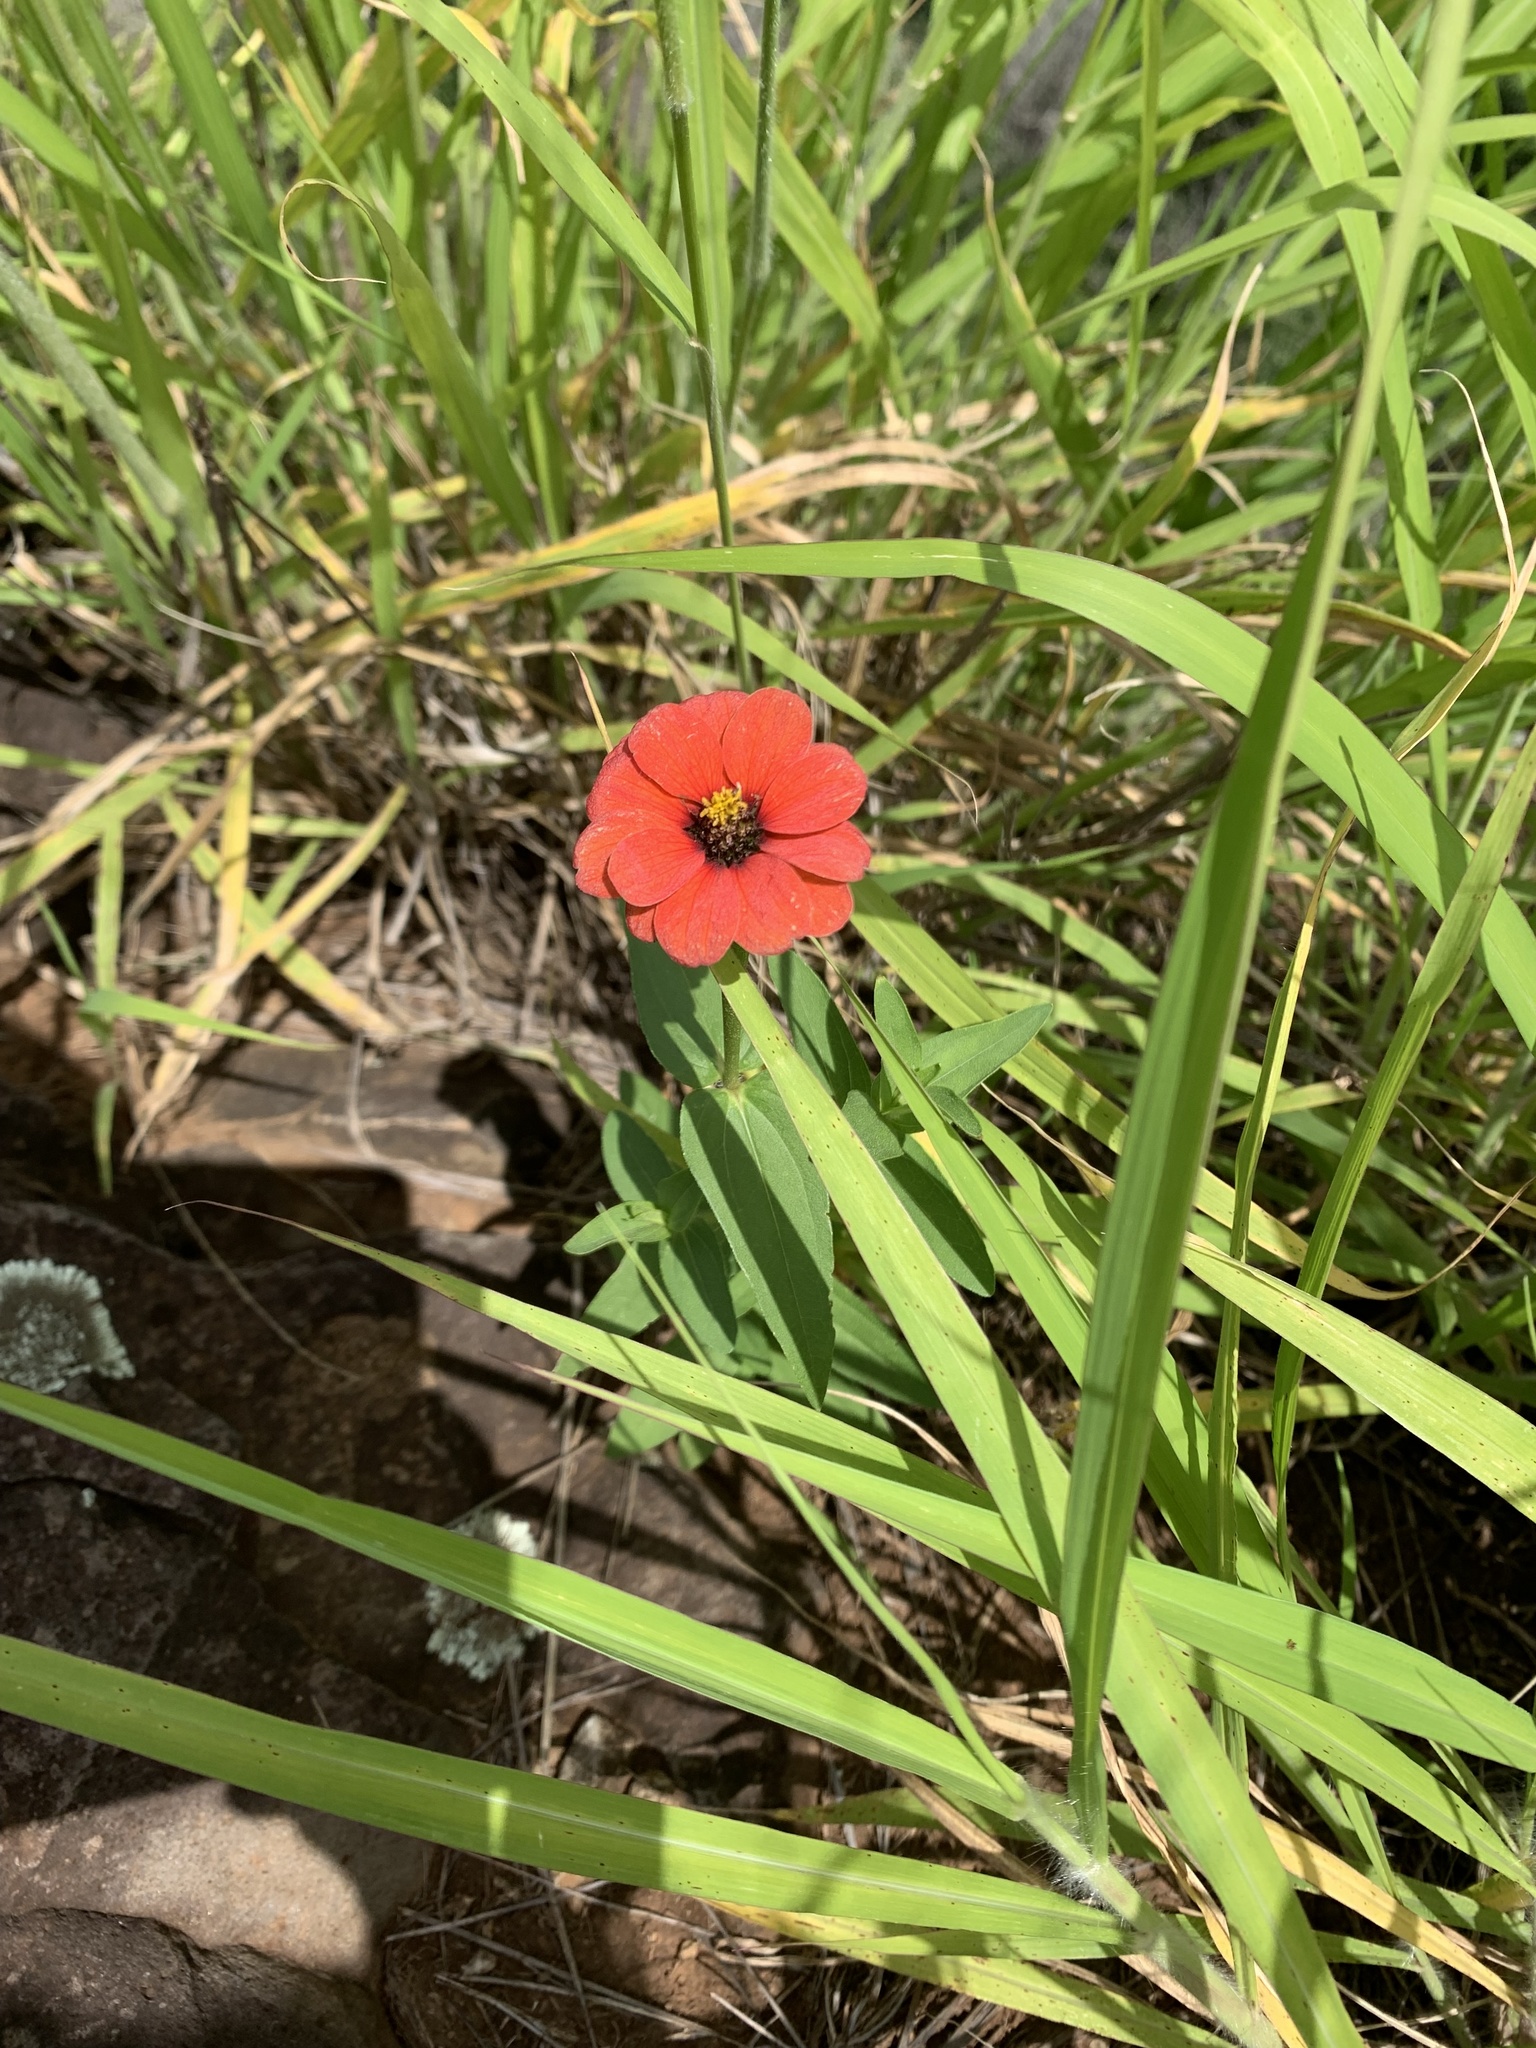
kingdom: Plantae
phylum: Tracheophyta
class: Magnoliopsida
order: Asterales
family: Asteraceae
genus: Zinnia
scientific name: Zinnia peruviana
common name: Peruvian zinnia
